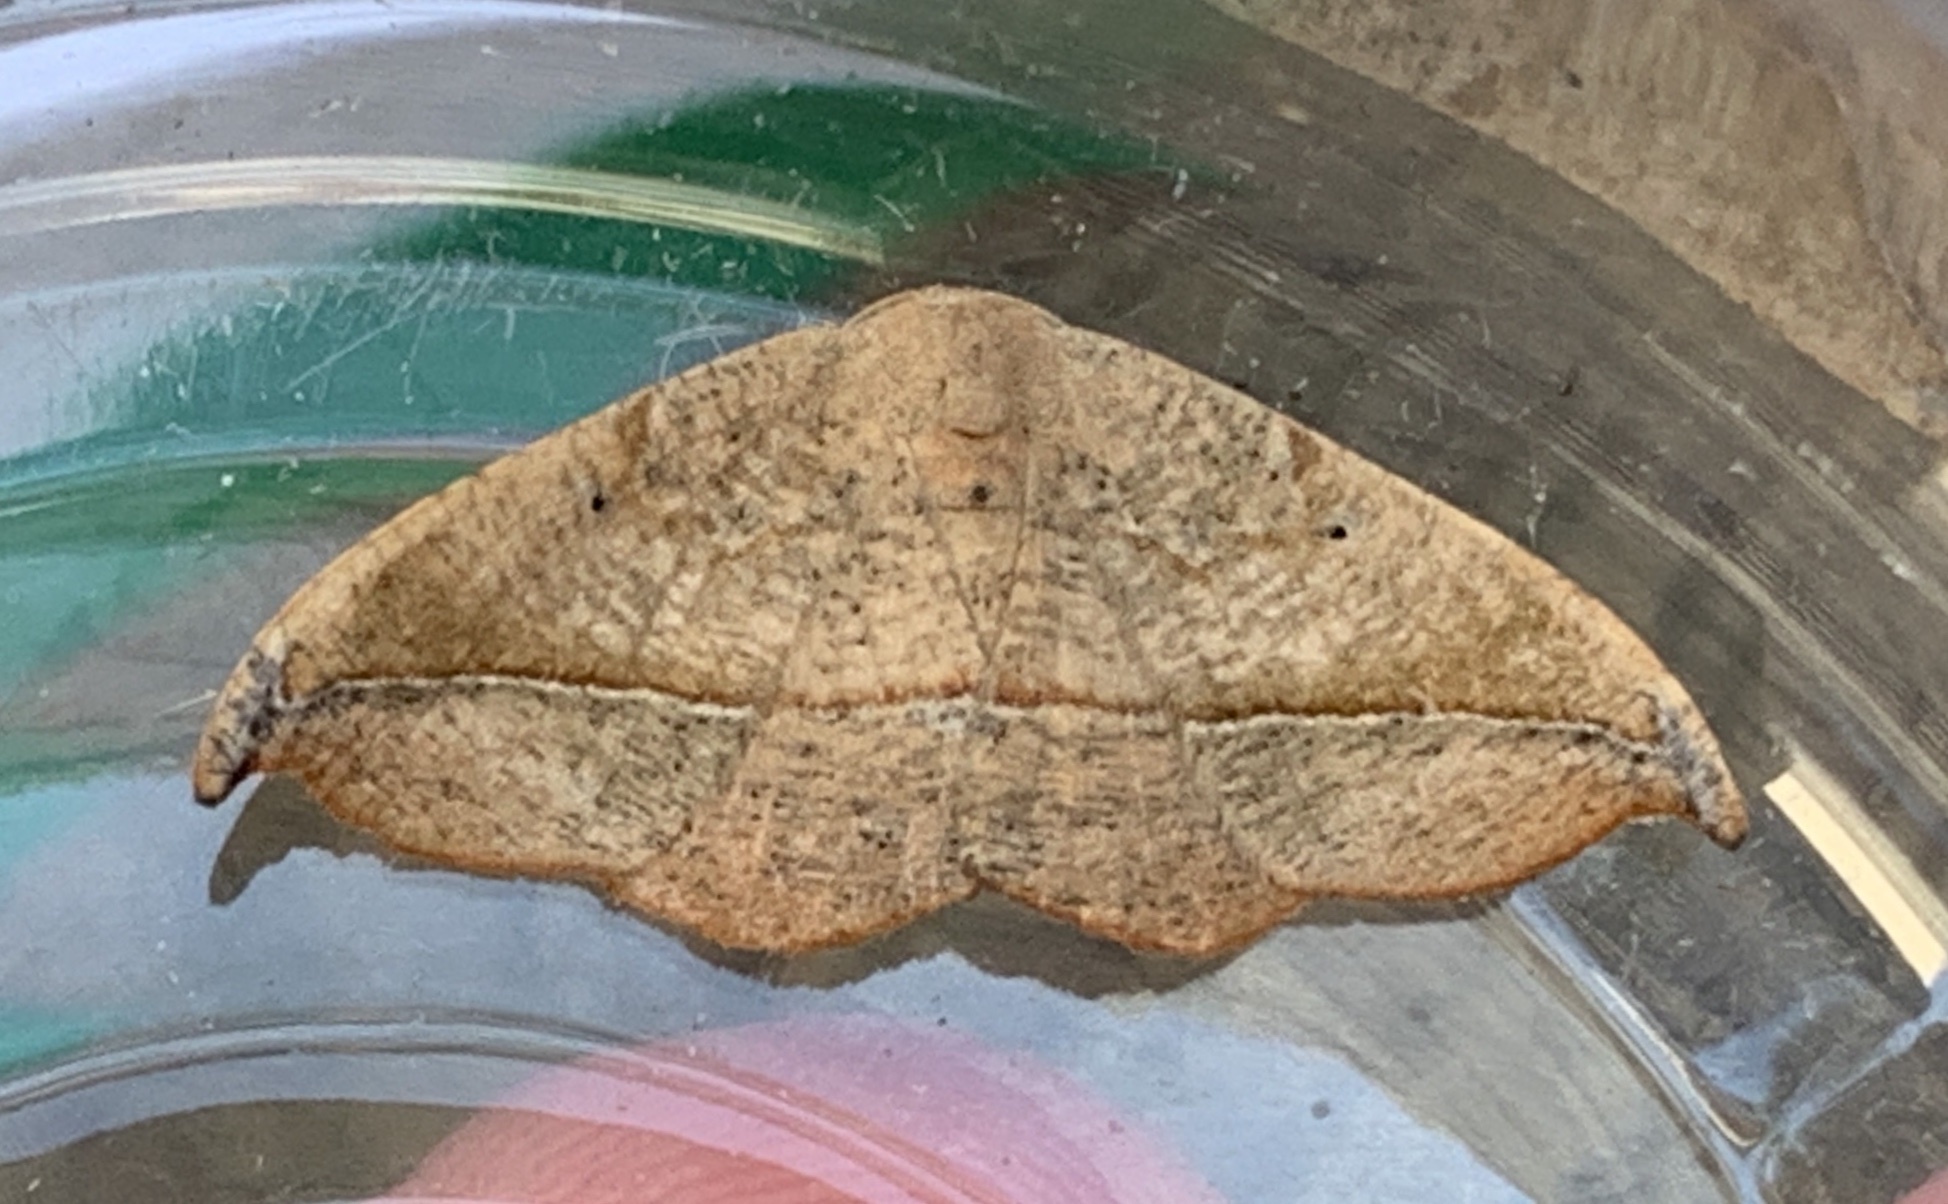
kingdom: Animalia
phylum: Arthropoda
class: Insecta
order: Lepidoptera
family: Geometridae
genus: Patalene
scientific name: Patalene olyzonaria
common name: Juniper geometer moth
